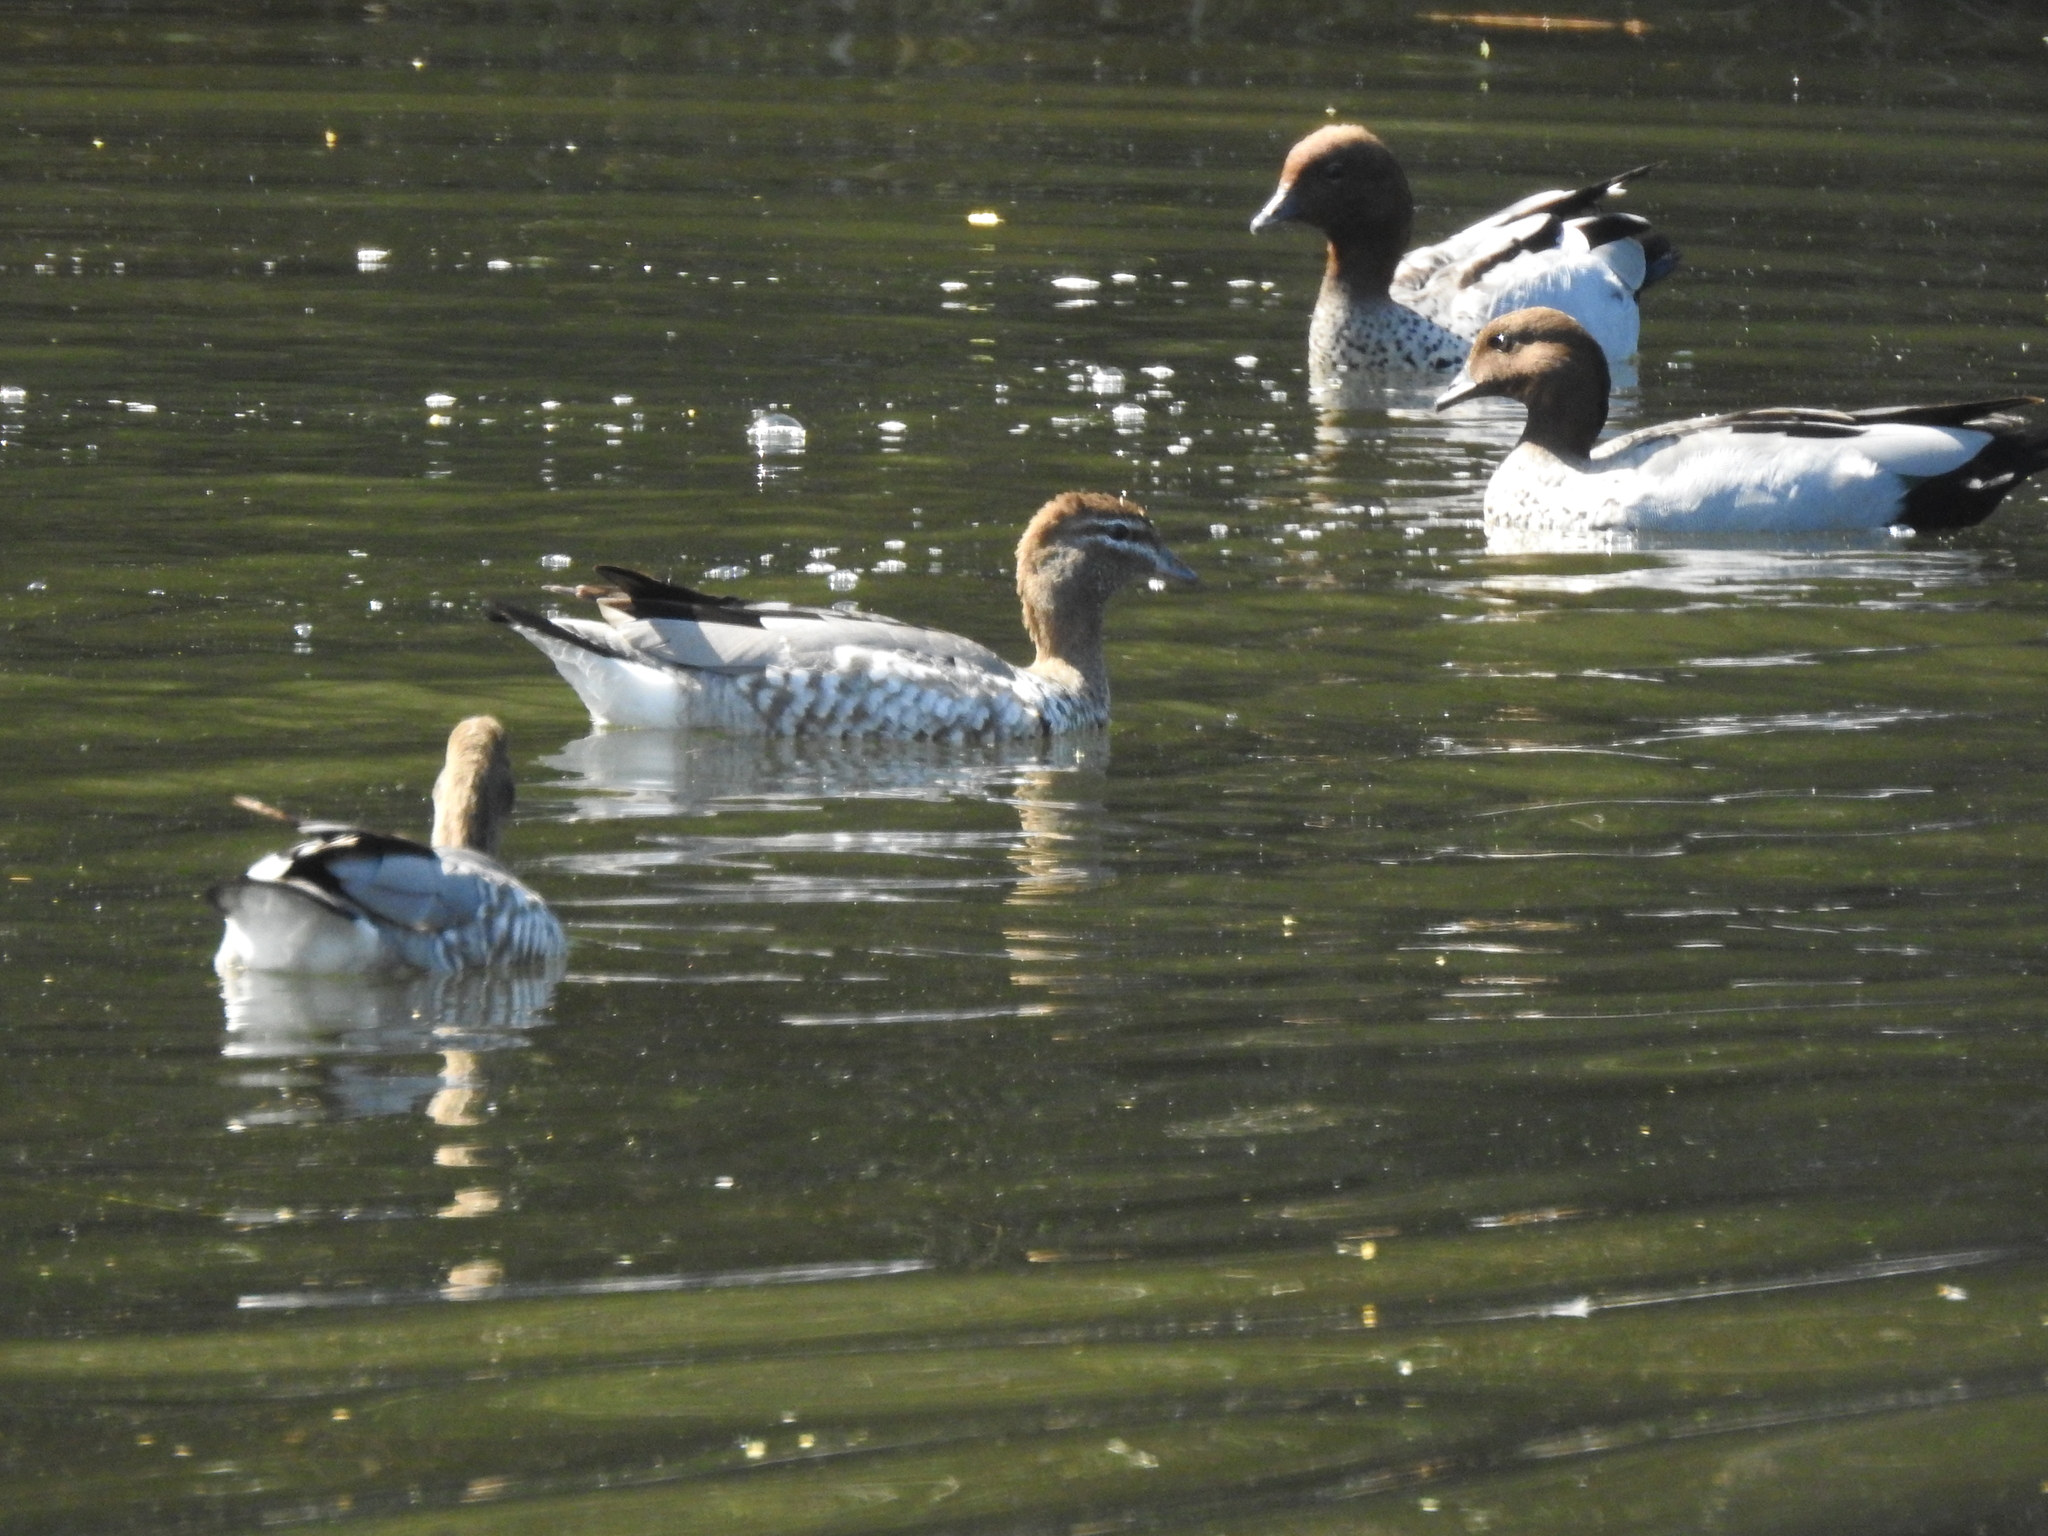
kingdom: Animalia
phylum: Chordata
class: Aves
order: Anseriformes
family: Anatidae
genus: Chenonetta
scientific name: Chenonetta jubata
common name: Maned duck
